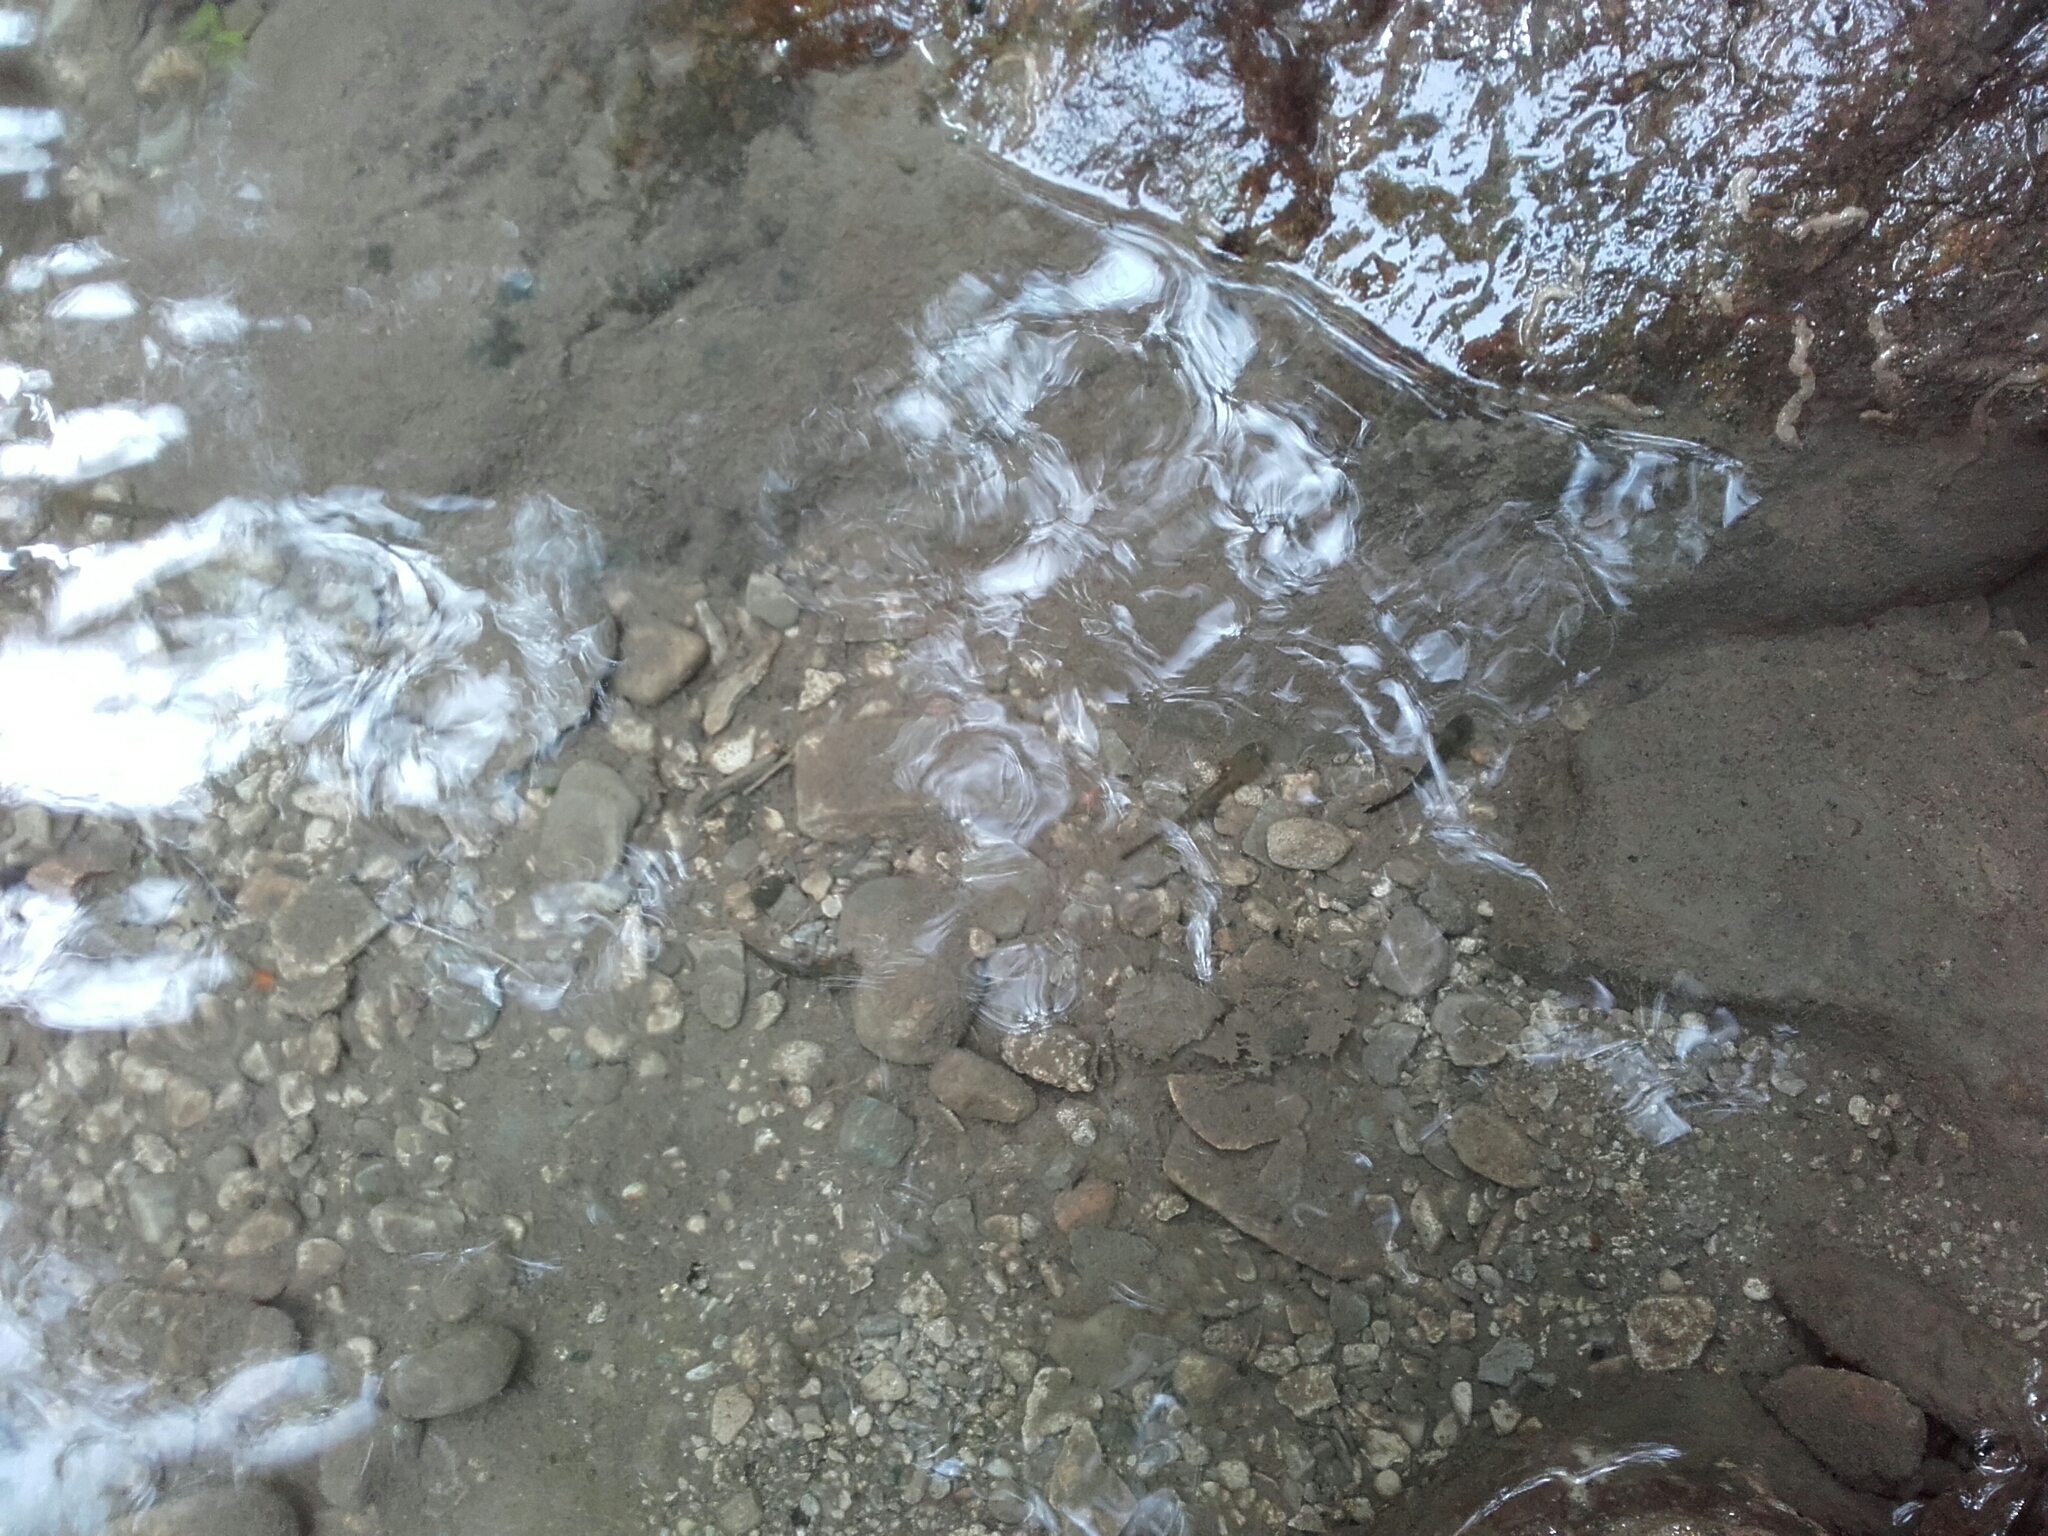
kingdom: Animalia
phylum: Chordata
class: Amphibia
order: Caudata
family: Salamandridae
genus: Salamandra
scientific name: Salamandra salamandra
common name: Fire salamander
